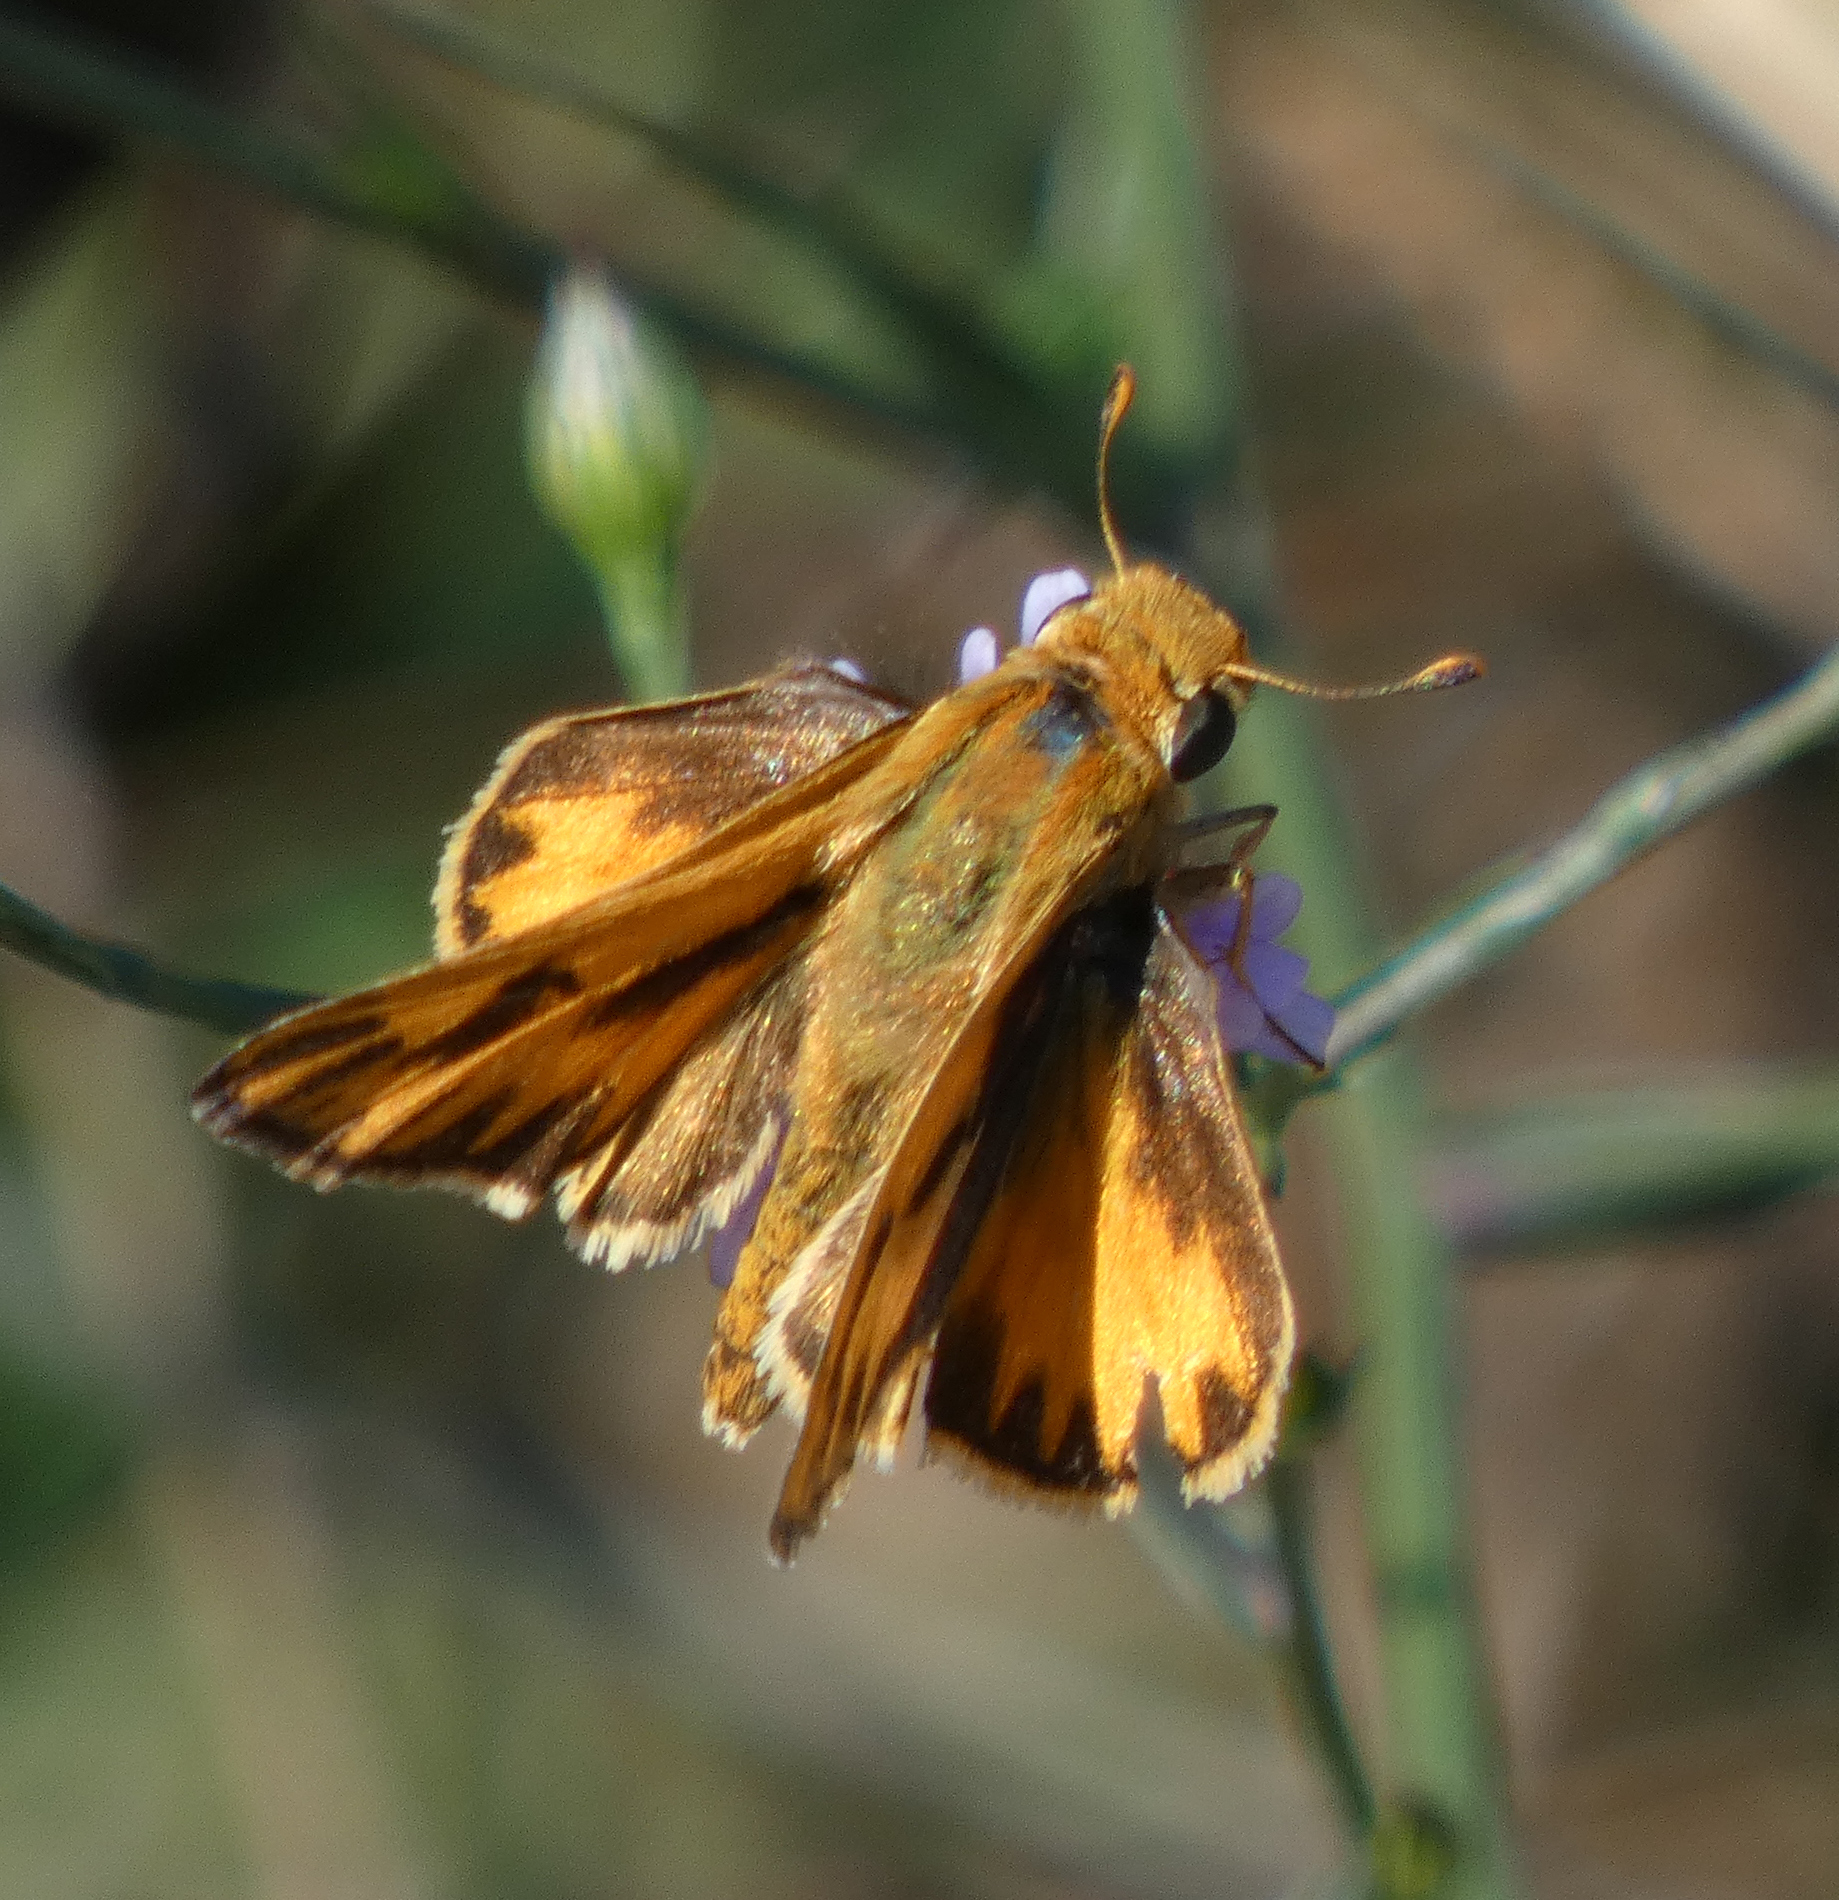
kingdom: Animalia
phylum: Arthropoda
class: Insecta
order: Lepidoptera
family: Hesperiidae
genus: Hylephila
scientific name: Hylephila phyleus
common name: Fiery skipper
